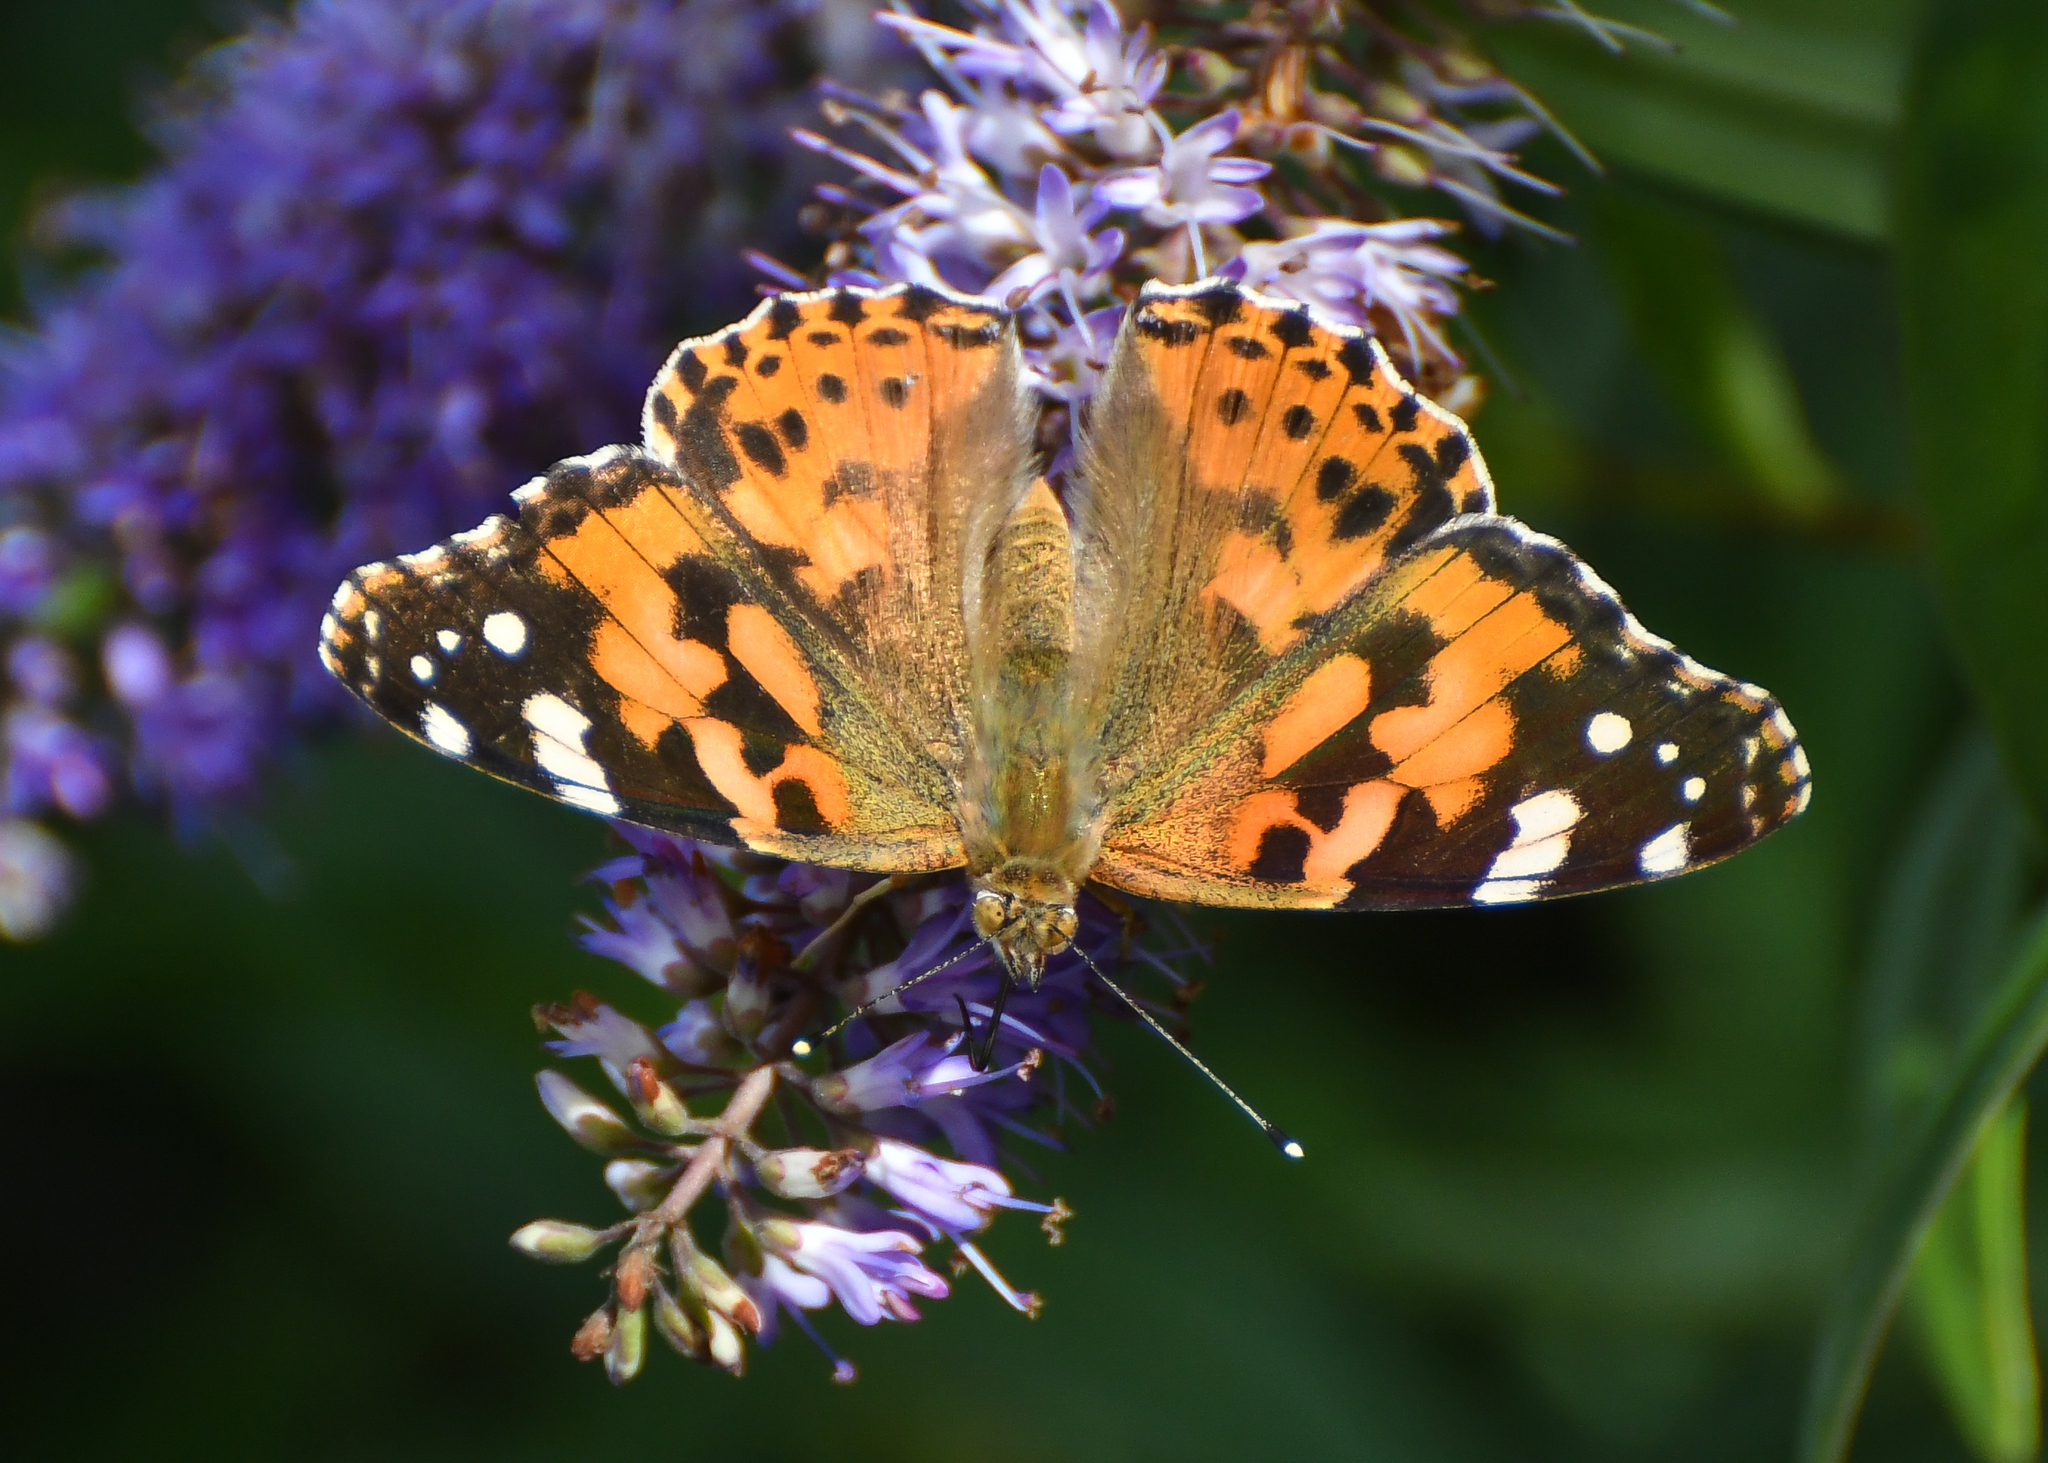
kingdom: Animalia
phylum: Arthropoda
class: Insecta
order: Lepidoptera
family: Nymphalidae
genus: Vanessa
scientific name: Vanessa cardui
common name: Painted lady
